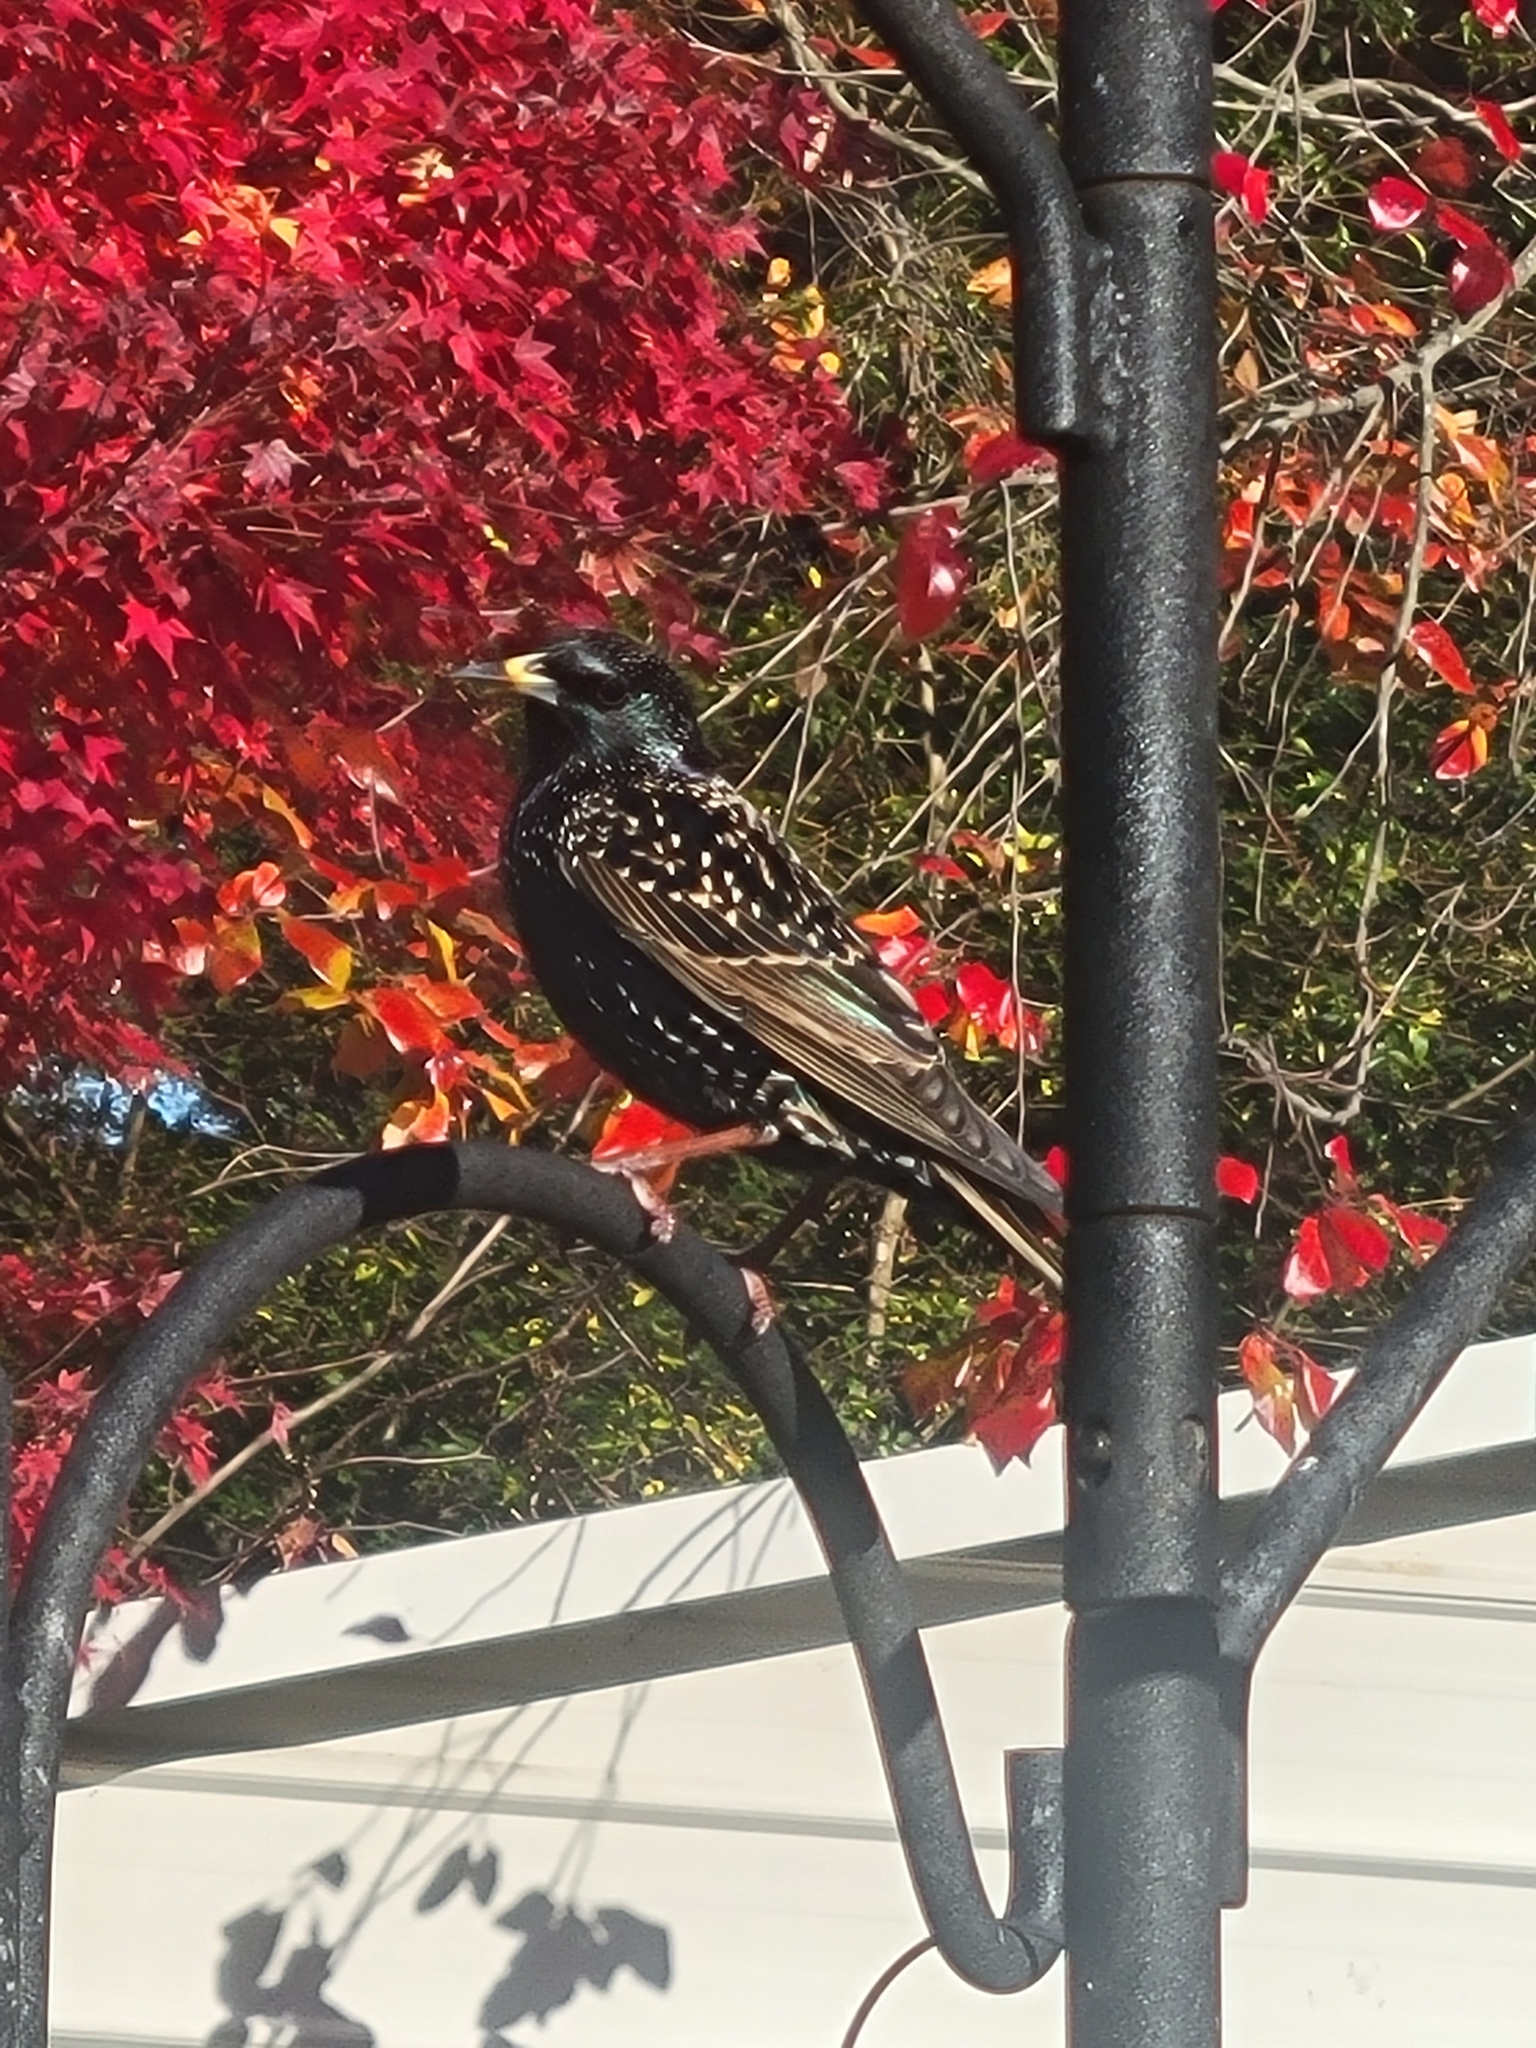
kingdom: Animalia
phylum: Chordata
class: Aves
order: Passeriformes
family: Sturnidae
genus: Sturnus
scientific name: Sturnus vulgaris
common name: Common starling
